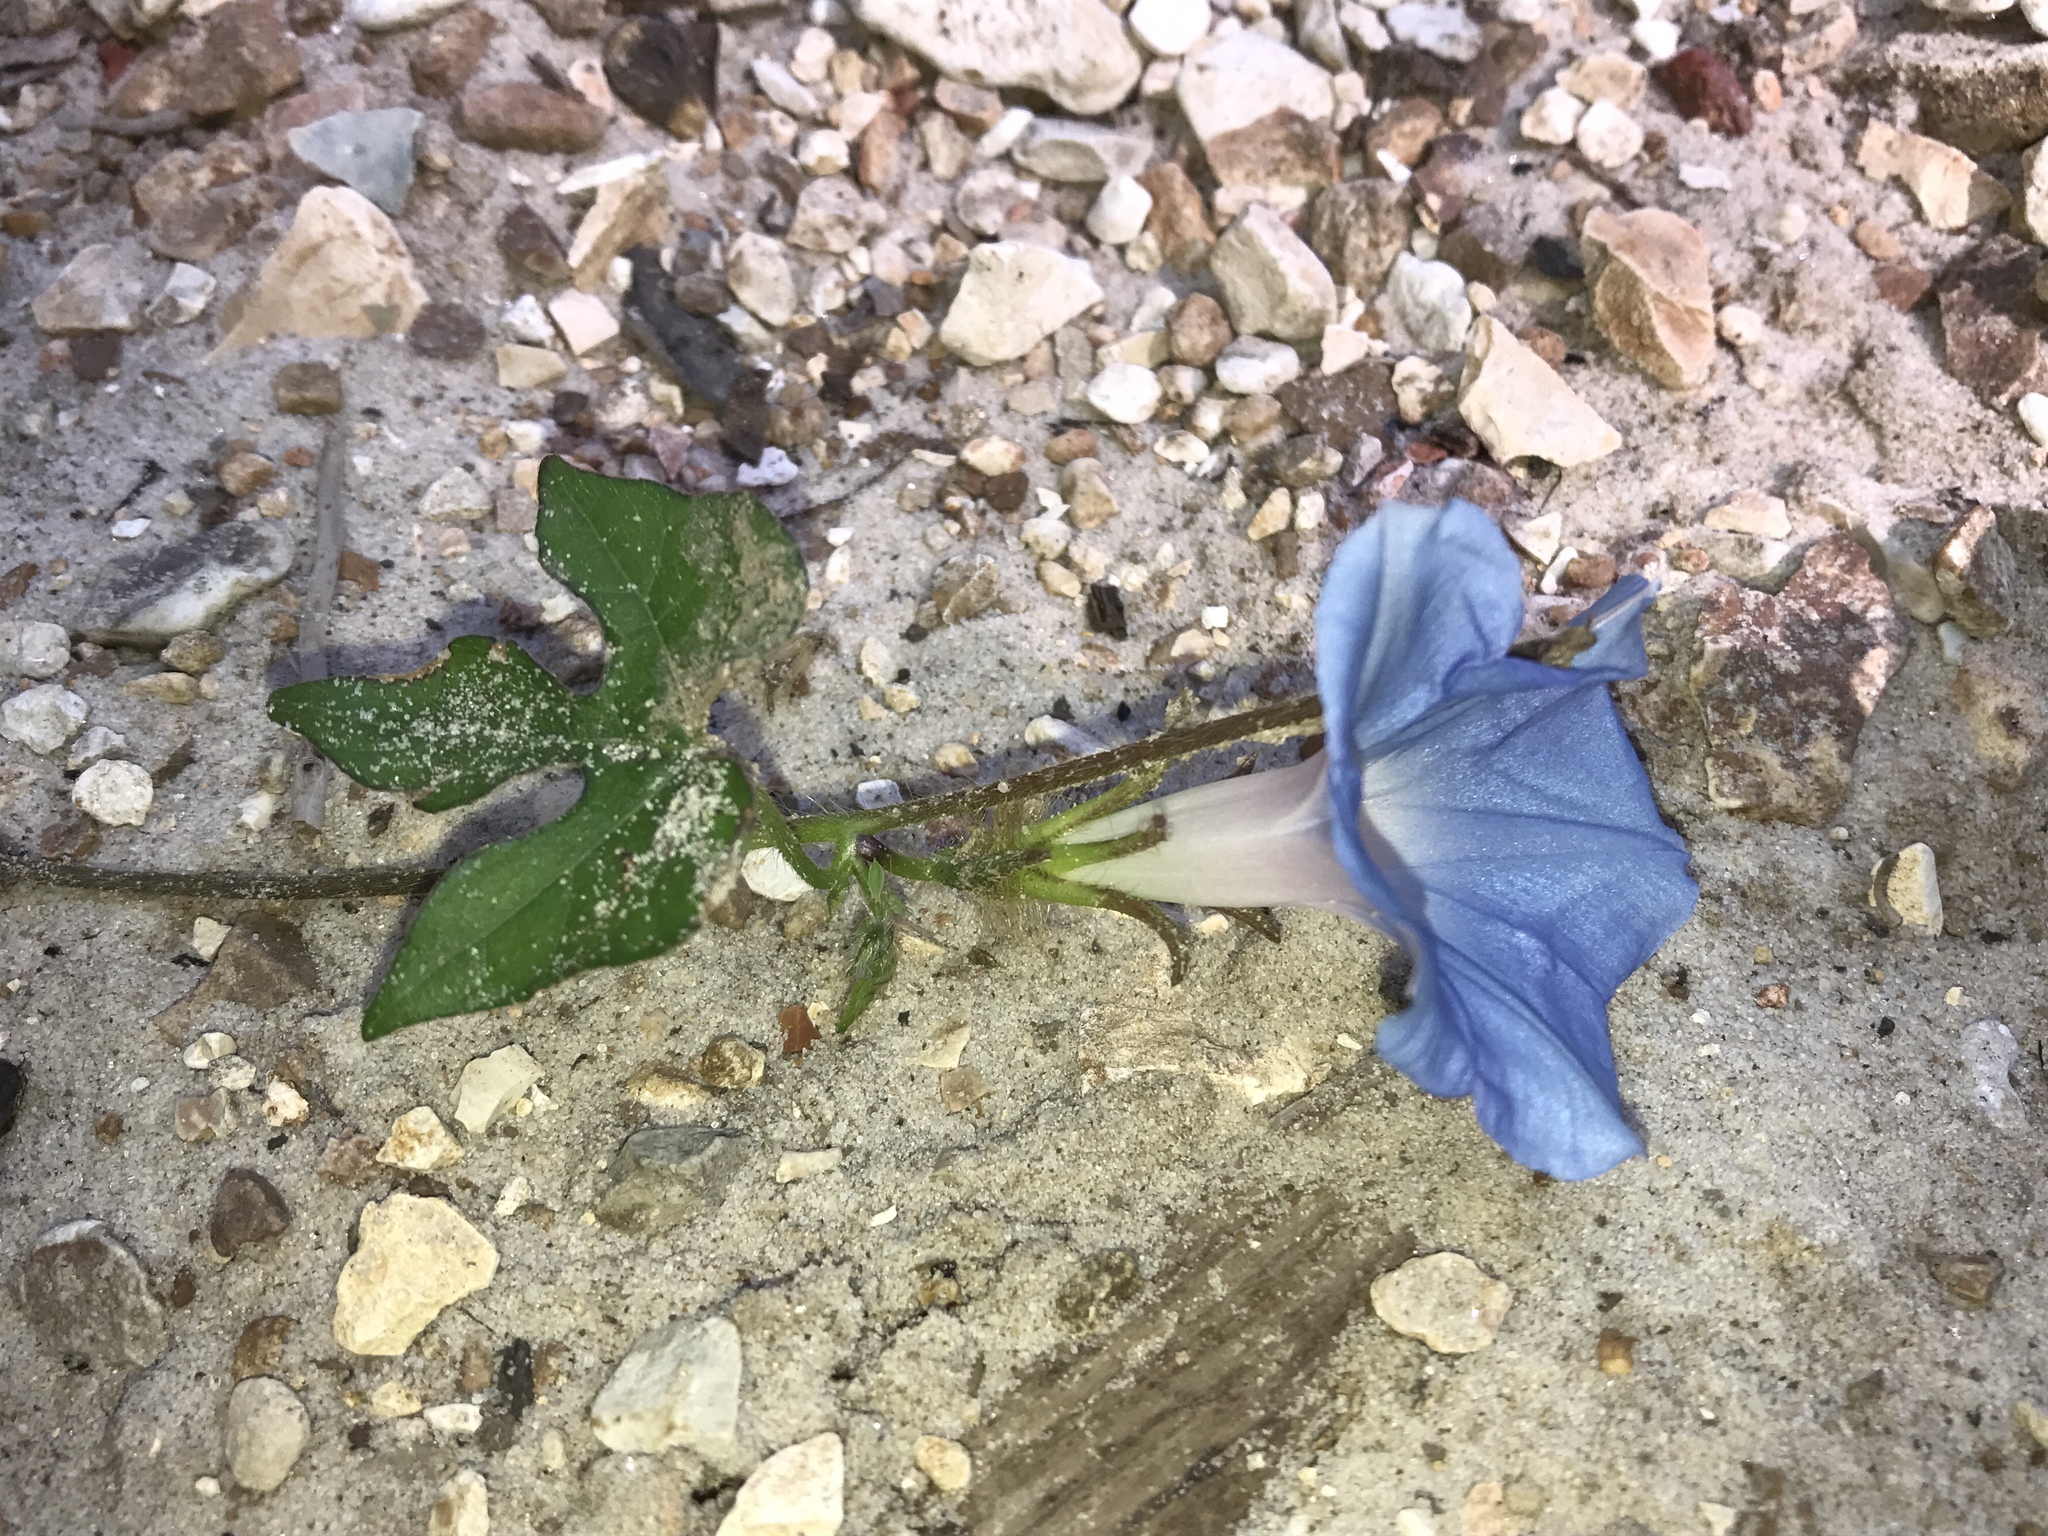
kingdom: Plantae
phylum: Tracheophyta
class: Magnoliopsida
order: Solanales
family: Convolvulaceae
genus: Ipomoea
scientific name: Ipomoea hederacea
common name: Ivy-leaved morning-glory
